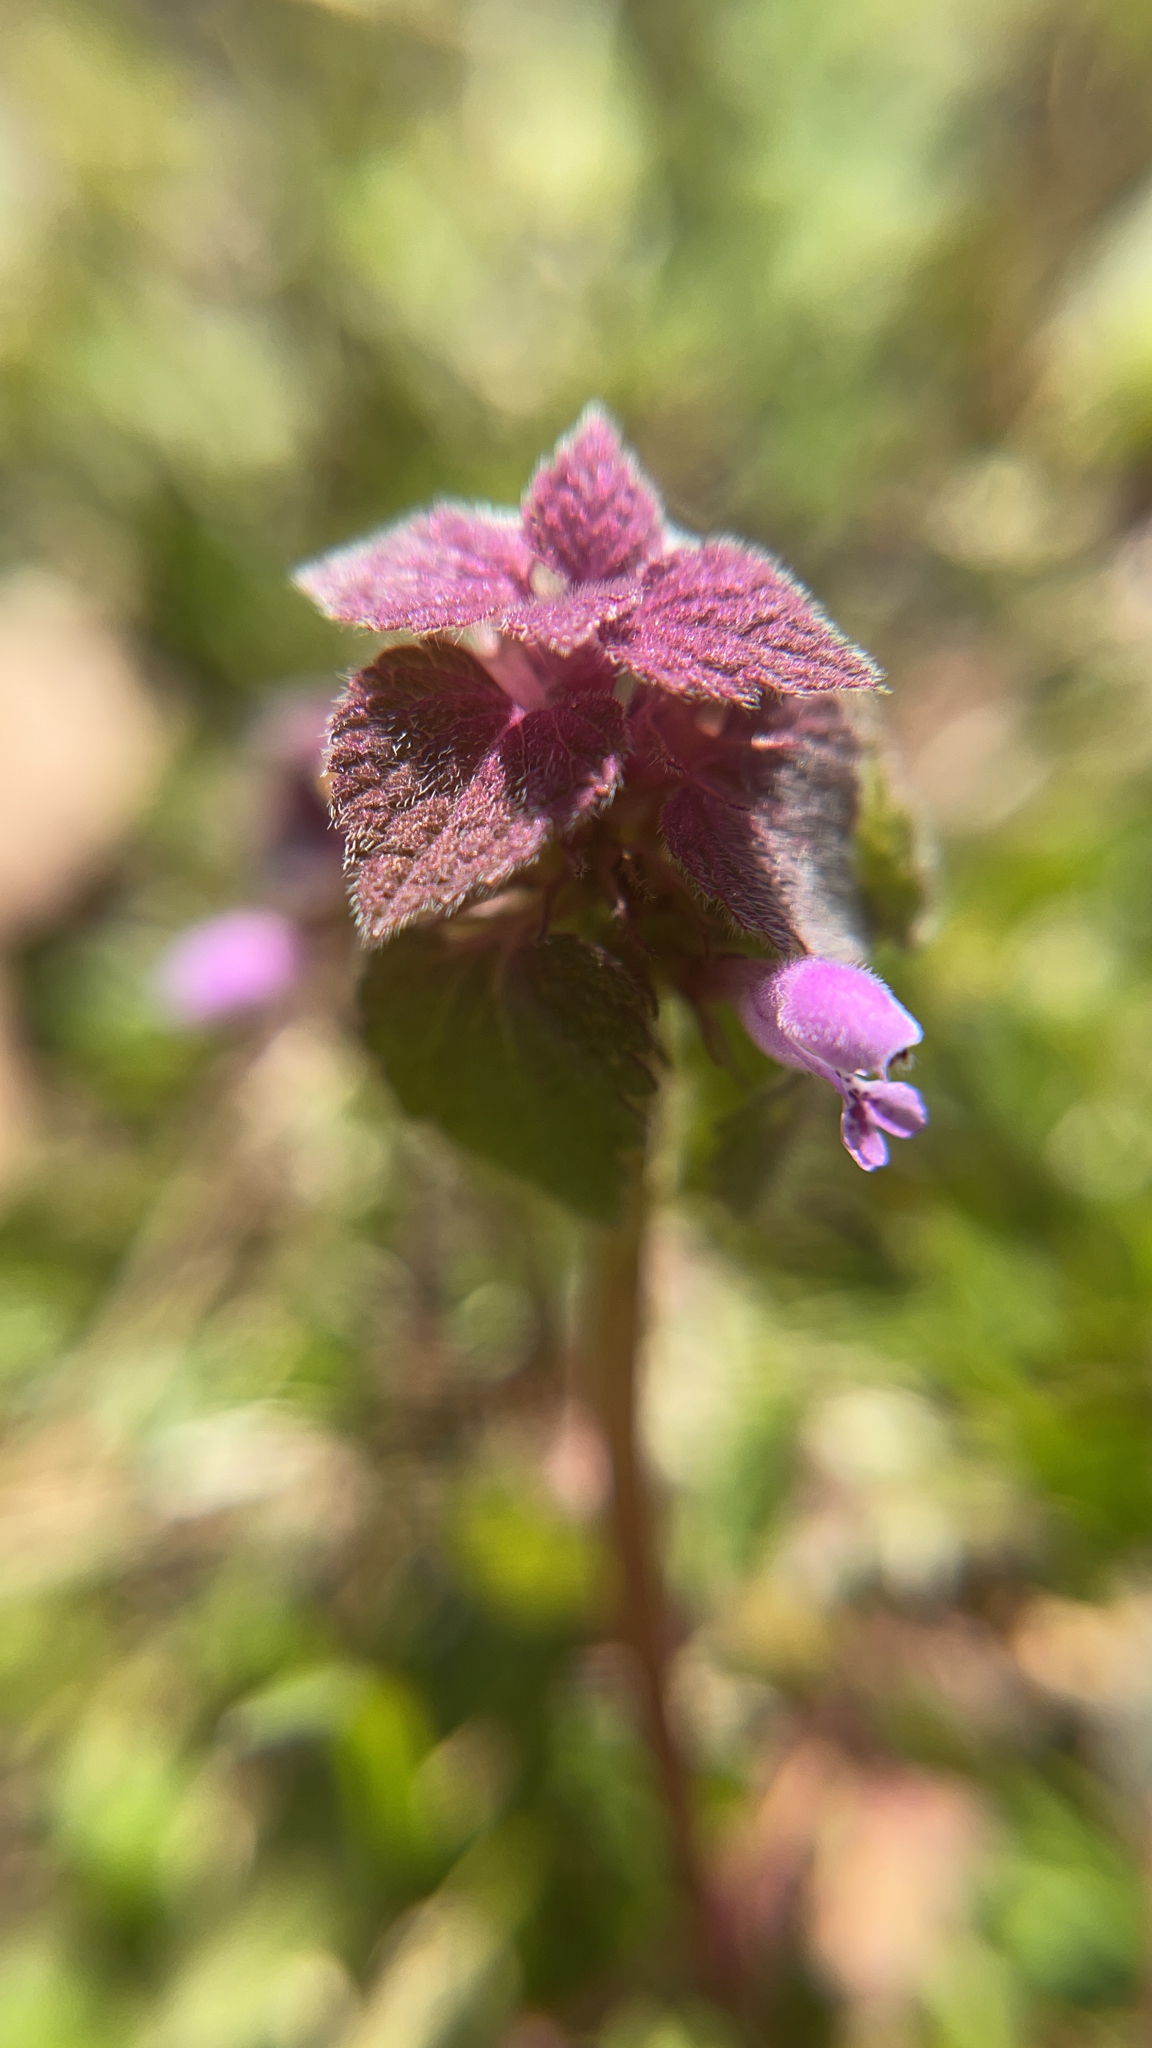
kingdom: Plantae
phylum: Tracheophyta
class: Magnoliopsida
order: Lamiales
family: Lamiaceae
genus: Lamium
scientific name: Lamium purpureum
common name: Red dead-nettle
